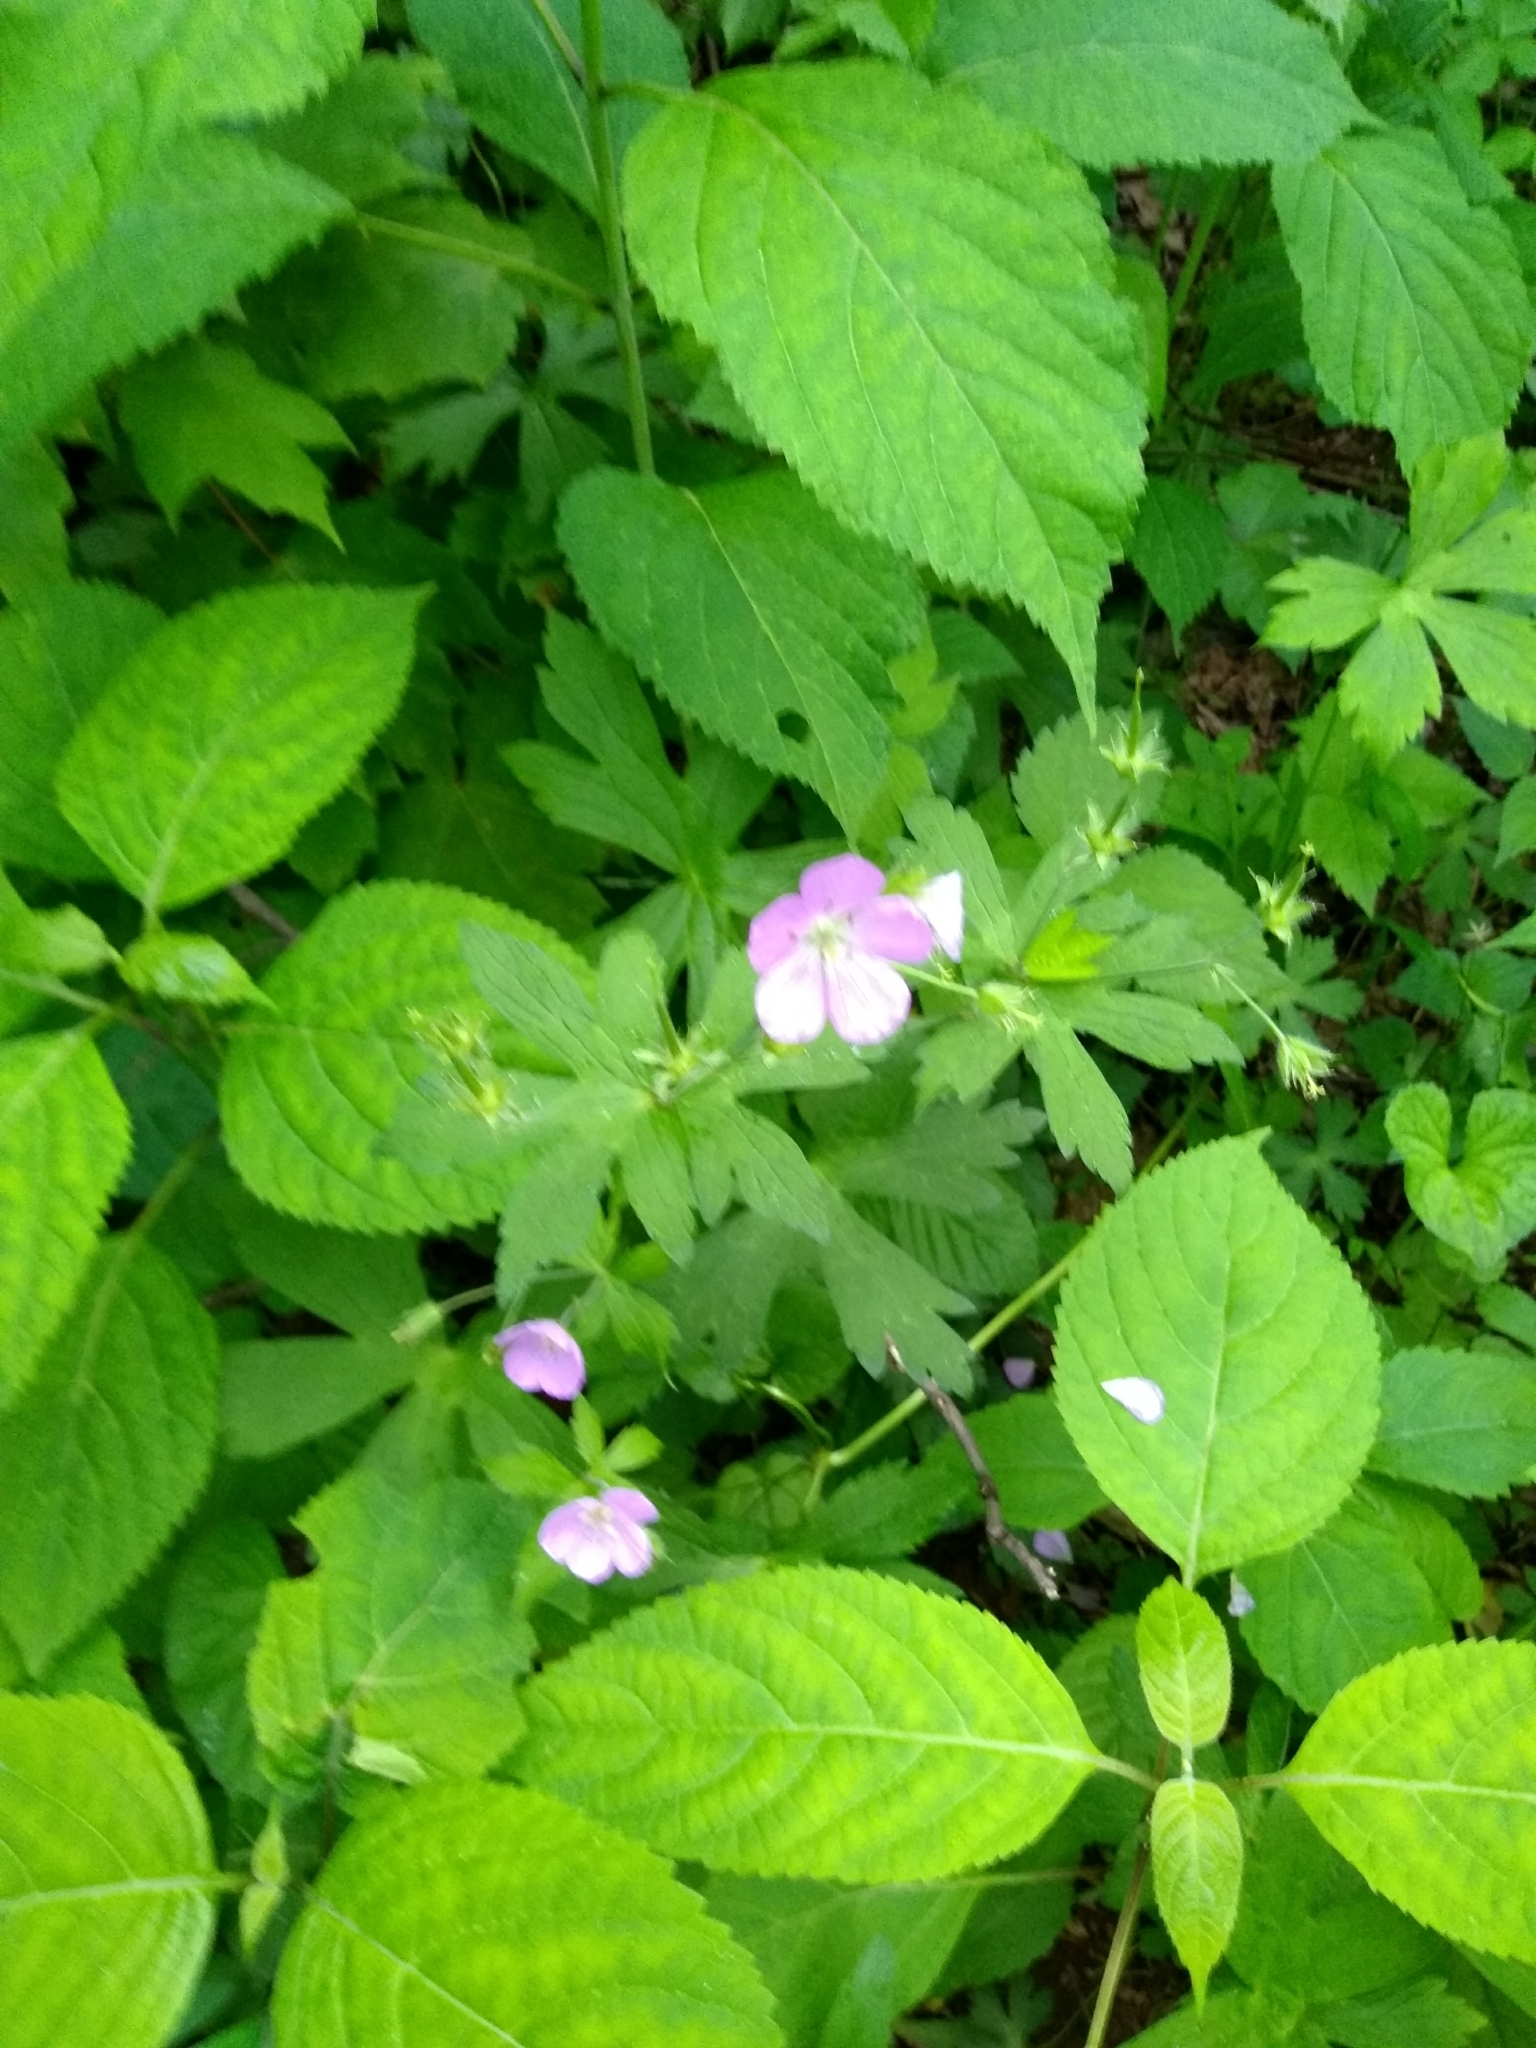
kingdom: Plantae
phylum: Tracheophyta
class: Magnoliopsida
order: Geraniales
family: Geraniaceae
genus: Geranium
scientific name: Geranium maculatum
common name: Spotted geranium
